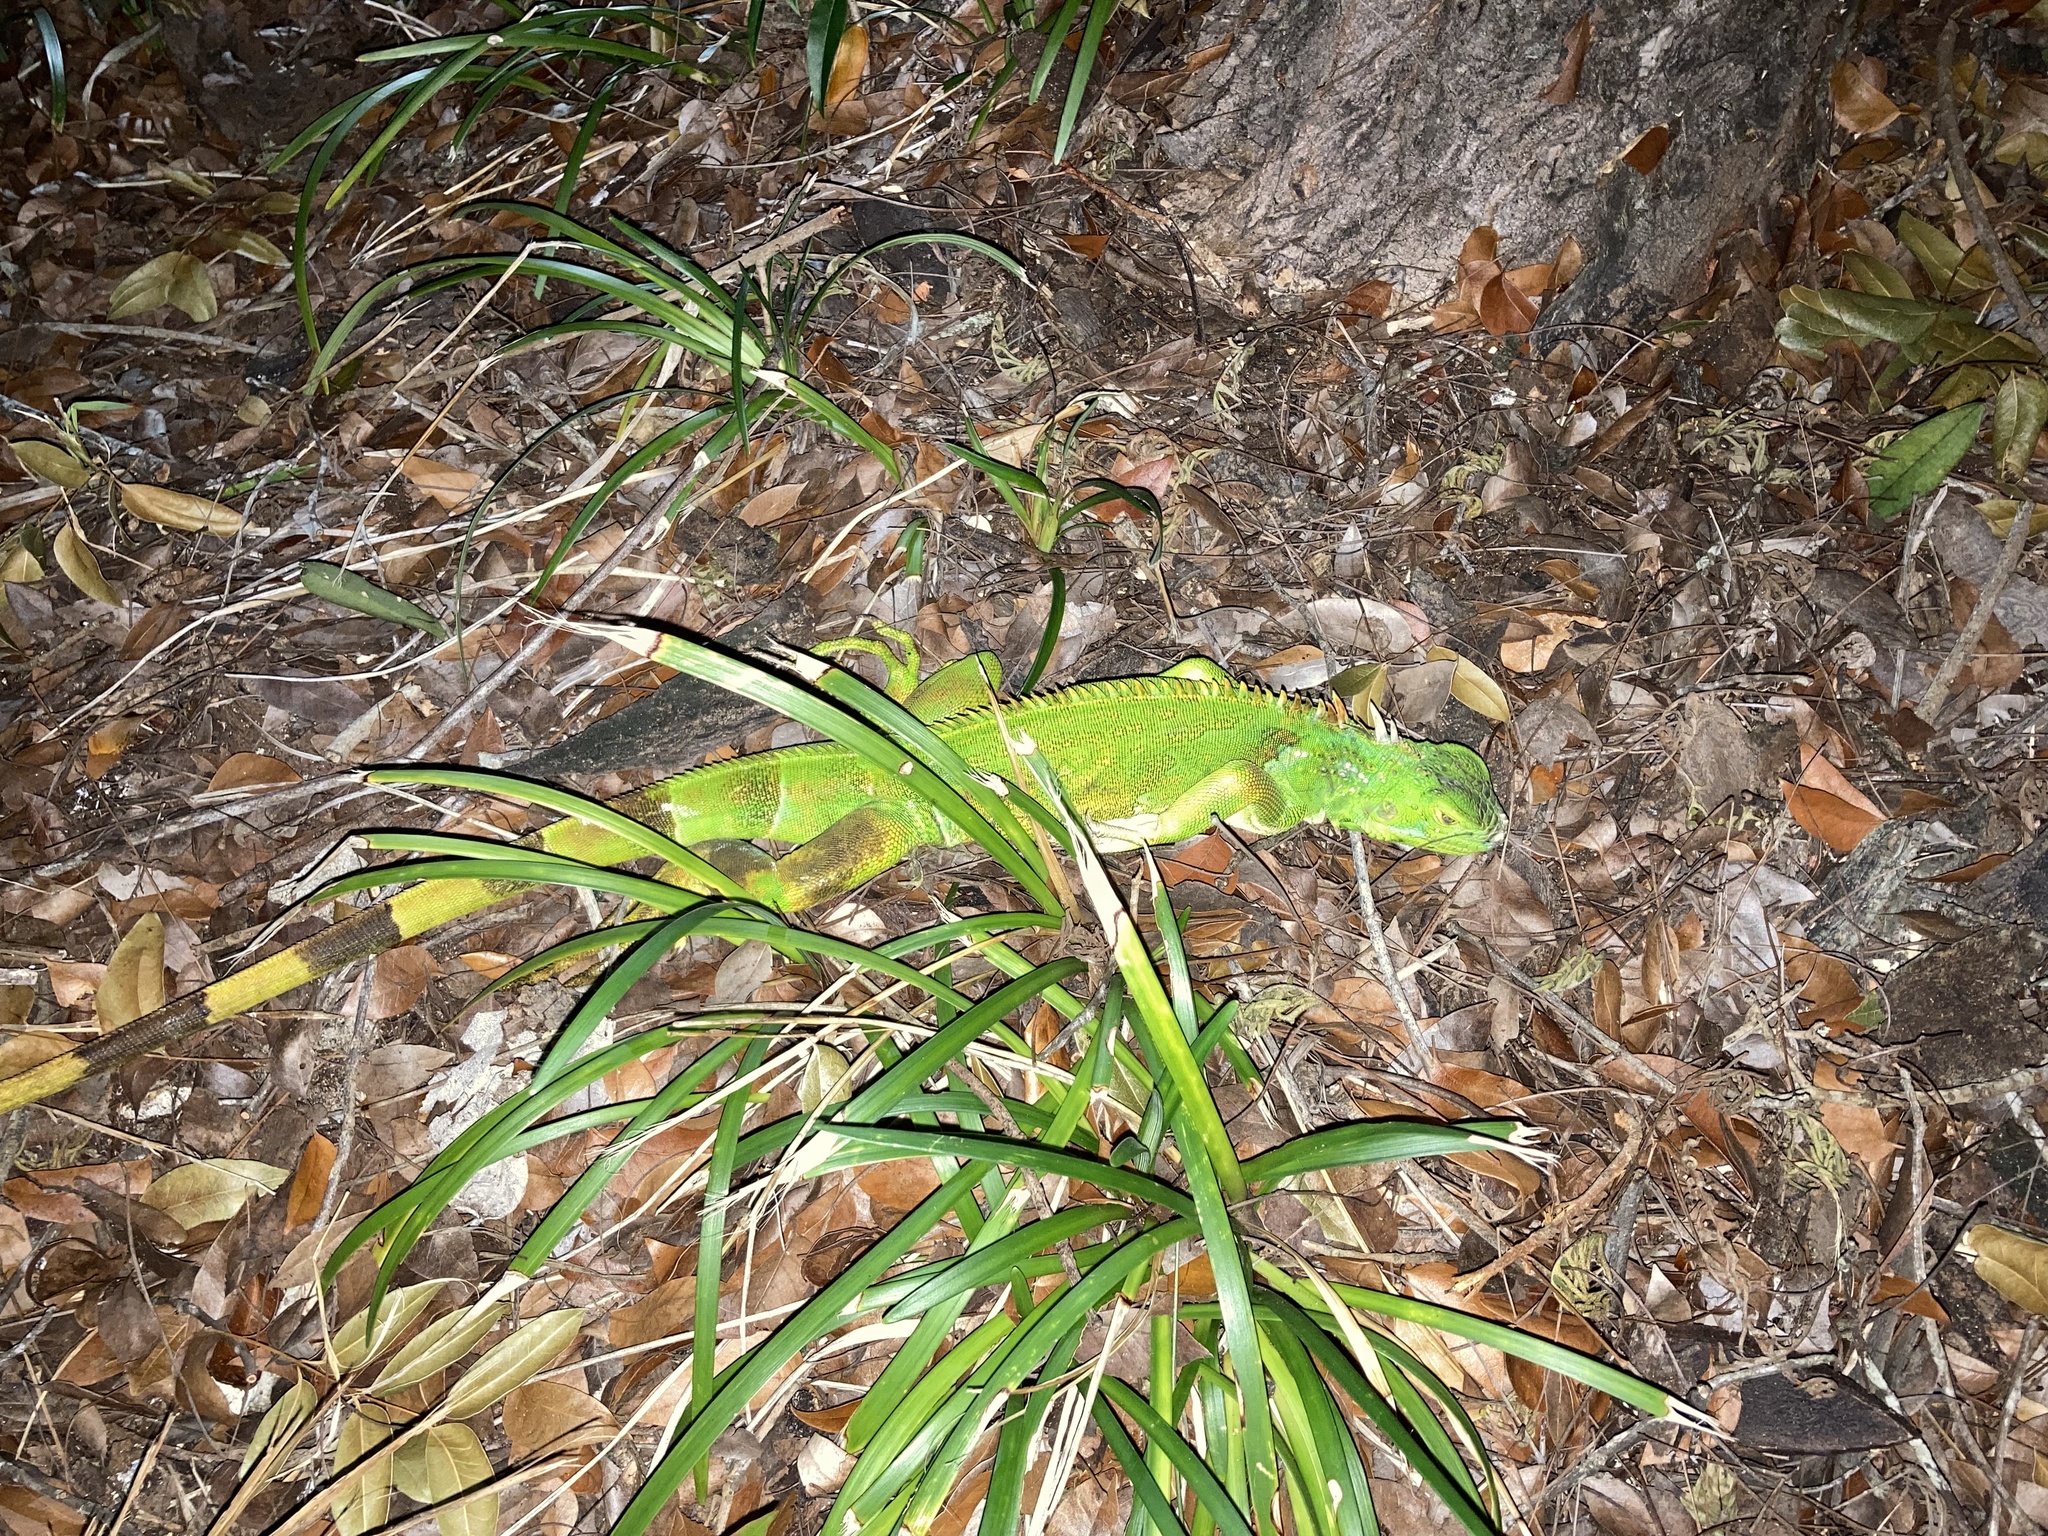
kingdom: Animalia
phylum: Chordata
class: Squamata
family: Iguanidae
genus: Iguana
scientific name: Iguana iguana
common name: Green iguana
